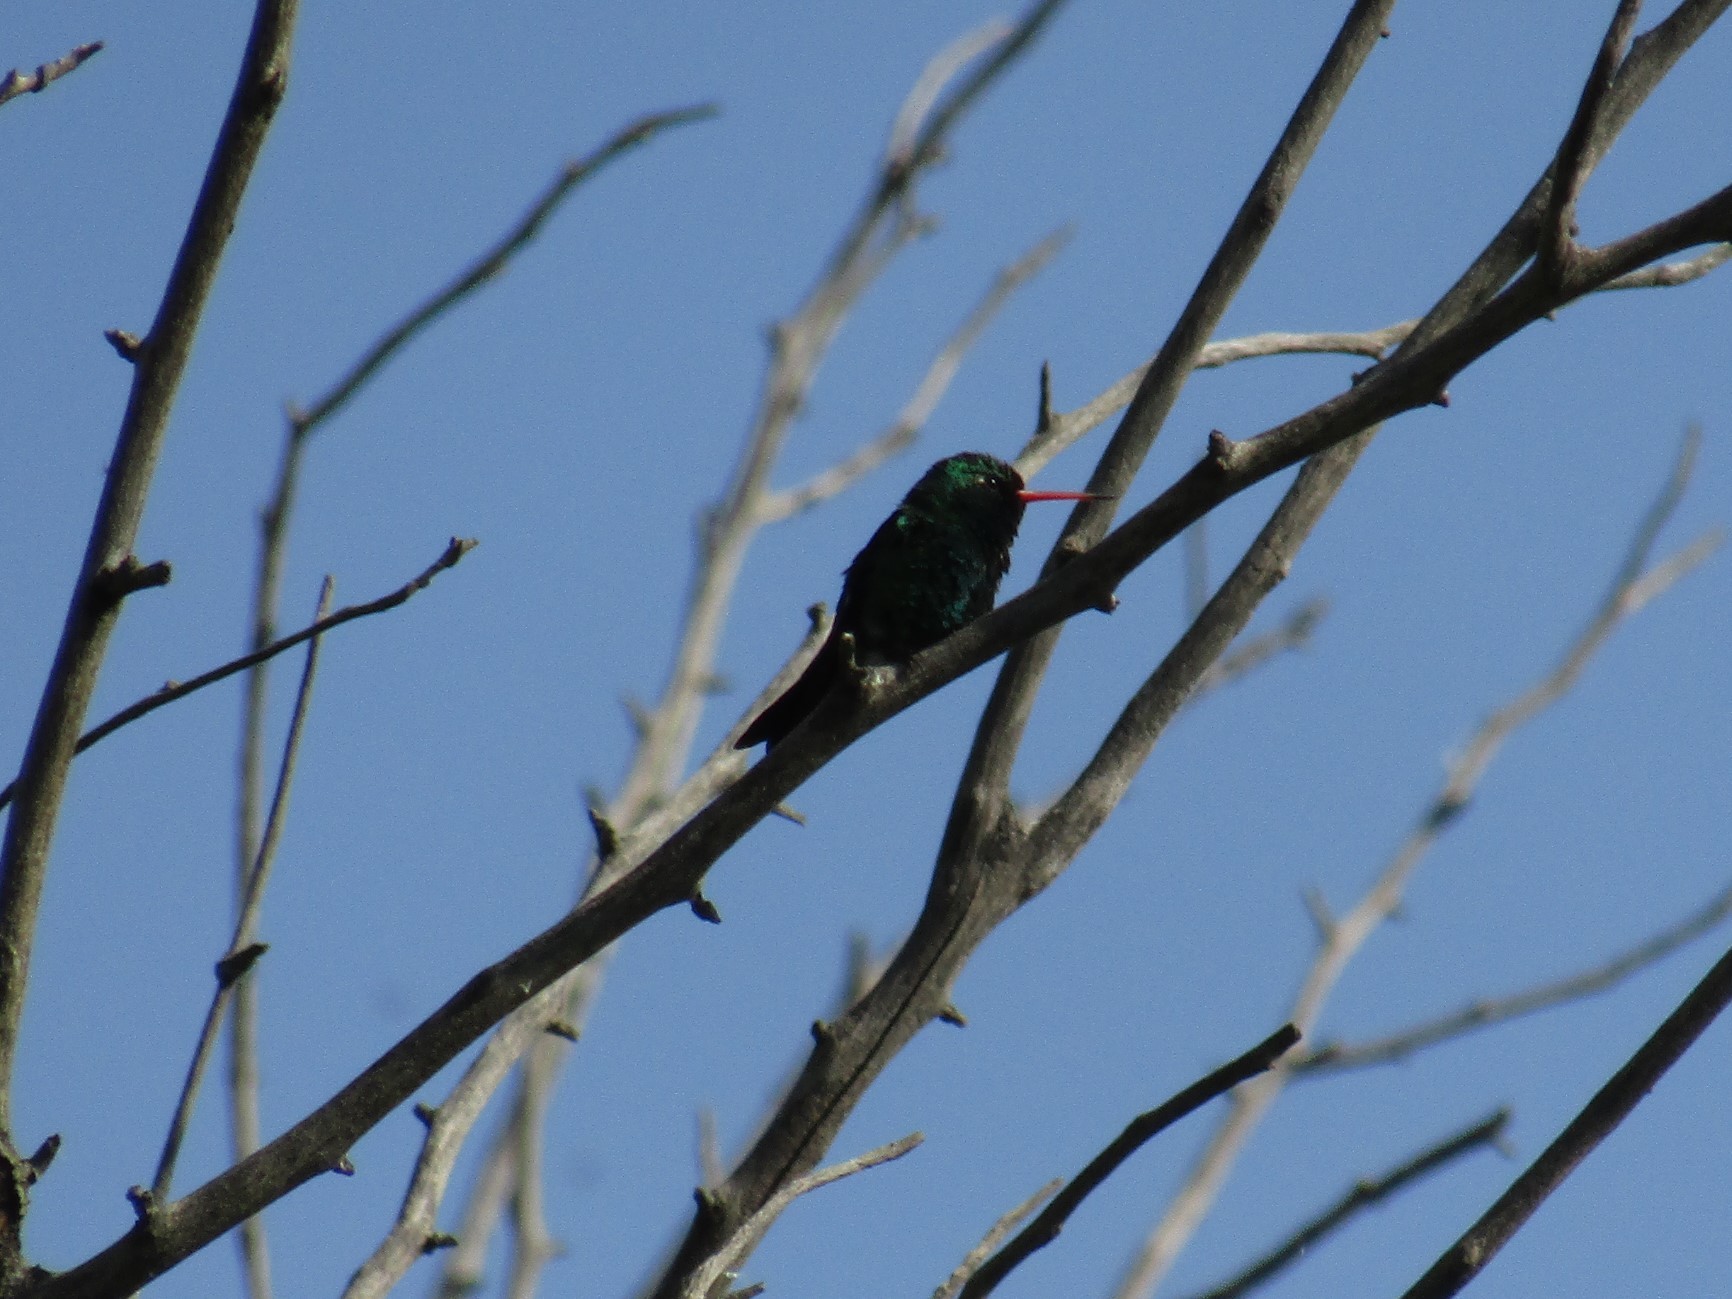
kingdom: Animalia
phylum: Chordata
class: Aves
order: Apodiformes
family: Trochilidae
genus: Chlorostilbon
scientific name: Chlorostilbon lucidus
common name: Glittering-bellied emerald
